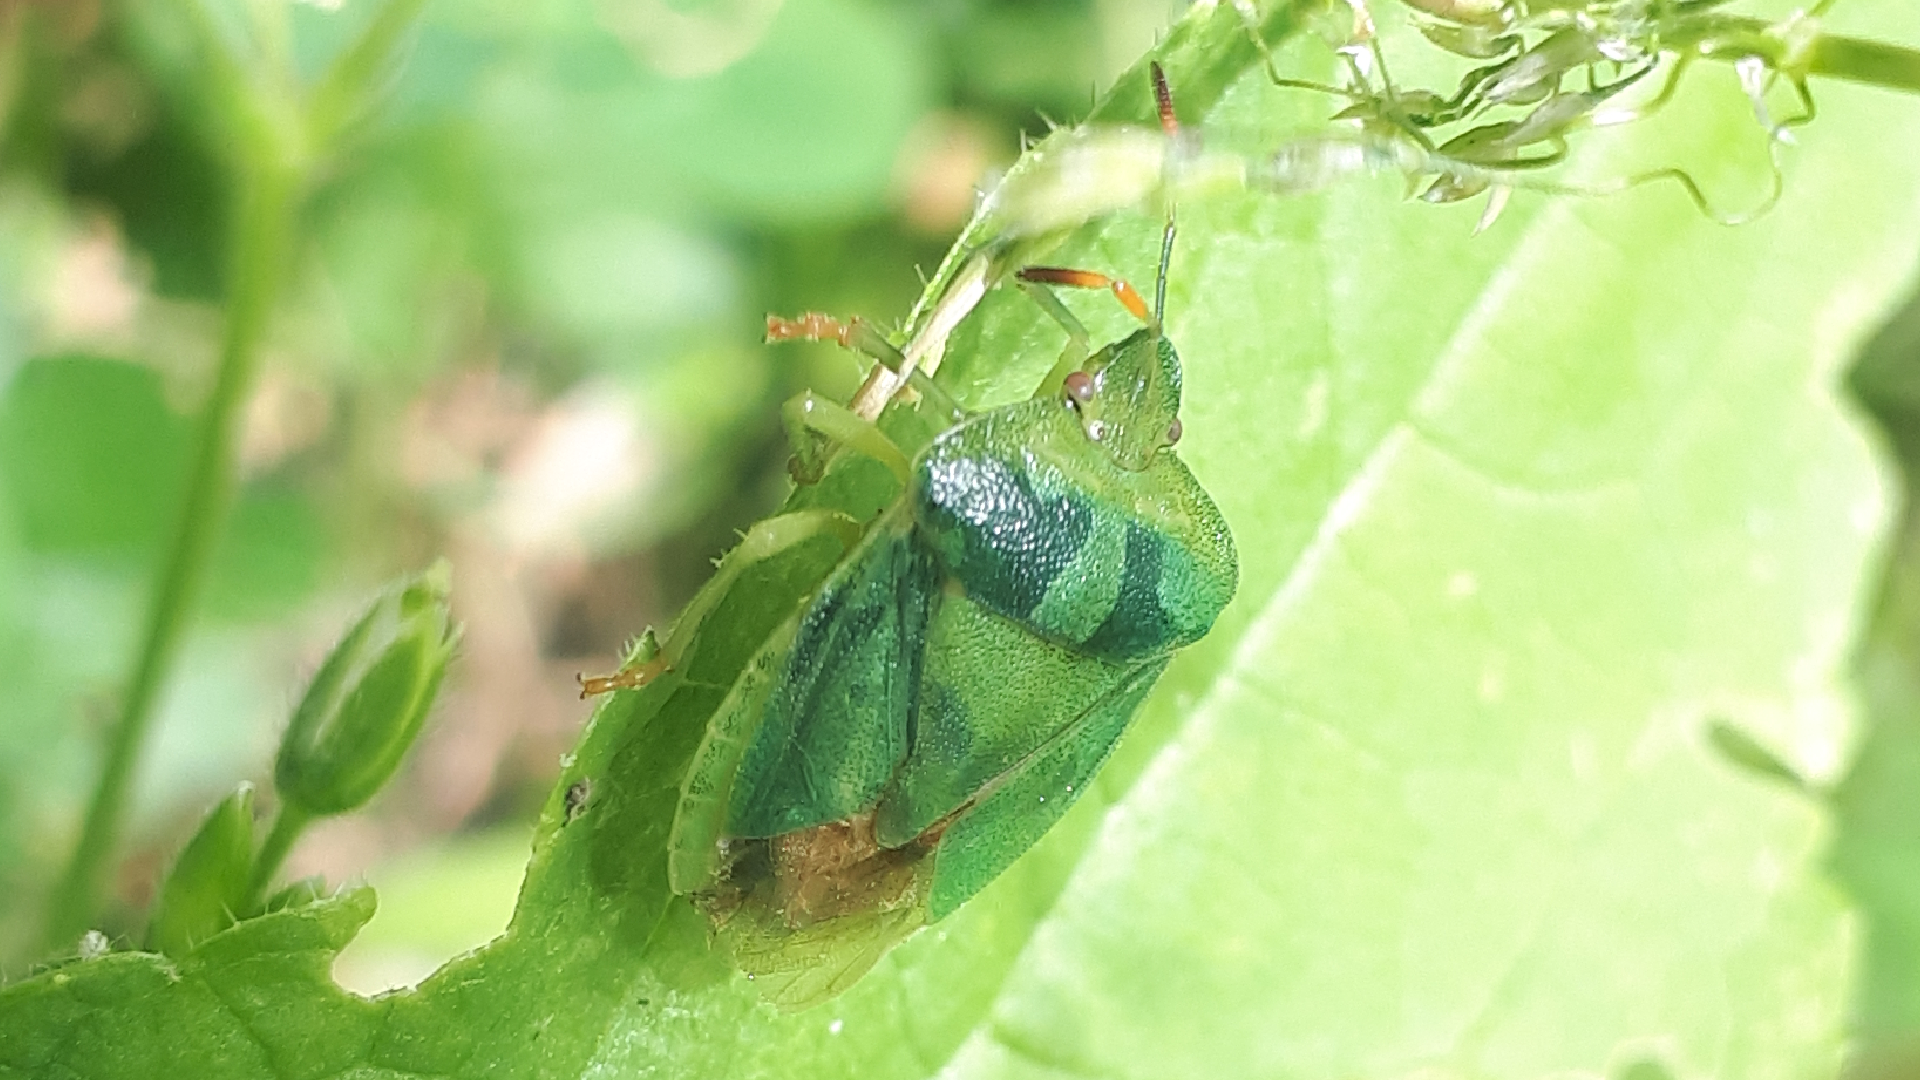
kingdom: Animalia
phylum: Arthropoda
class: Insecta
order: Hemiptera
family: Pentatomidae
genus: Palomena
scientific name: Palomena prasina
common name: Green shieldbug
